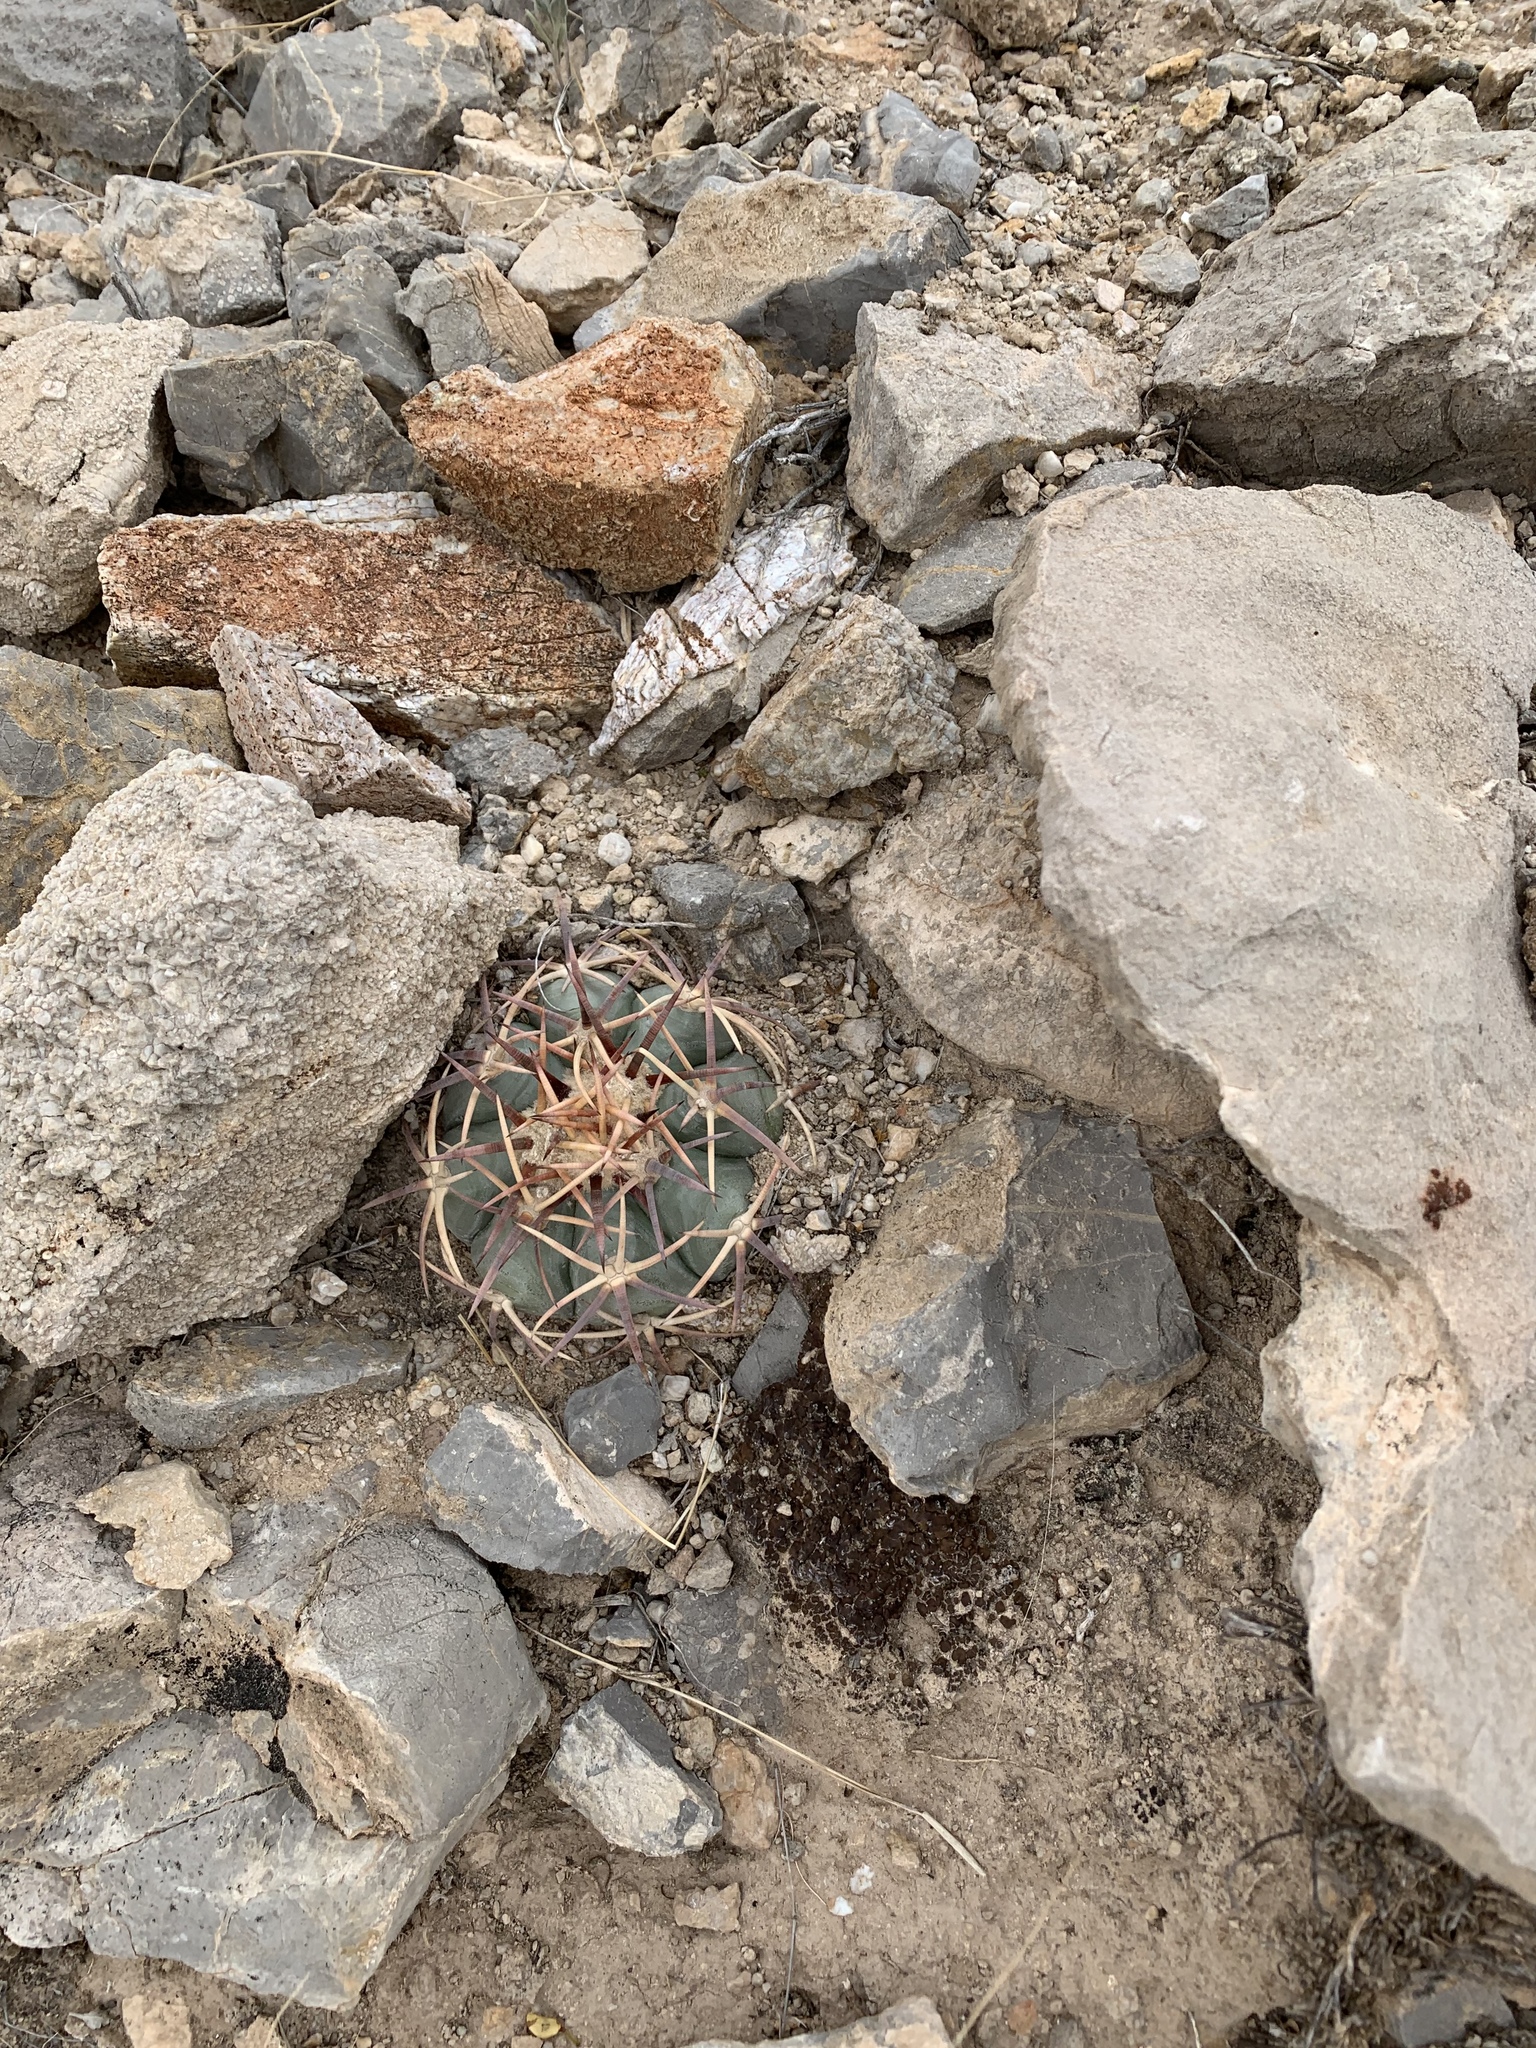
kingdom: Plantae
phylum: Tracheophyta
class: Magnoliopsida
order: Caryophyllales
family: Cactaceae
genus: Echinocactus
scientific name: Echinocactus horizonthalonius
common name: Devilshead
